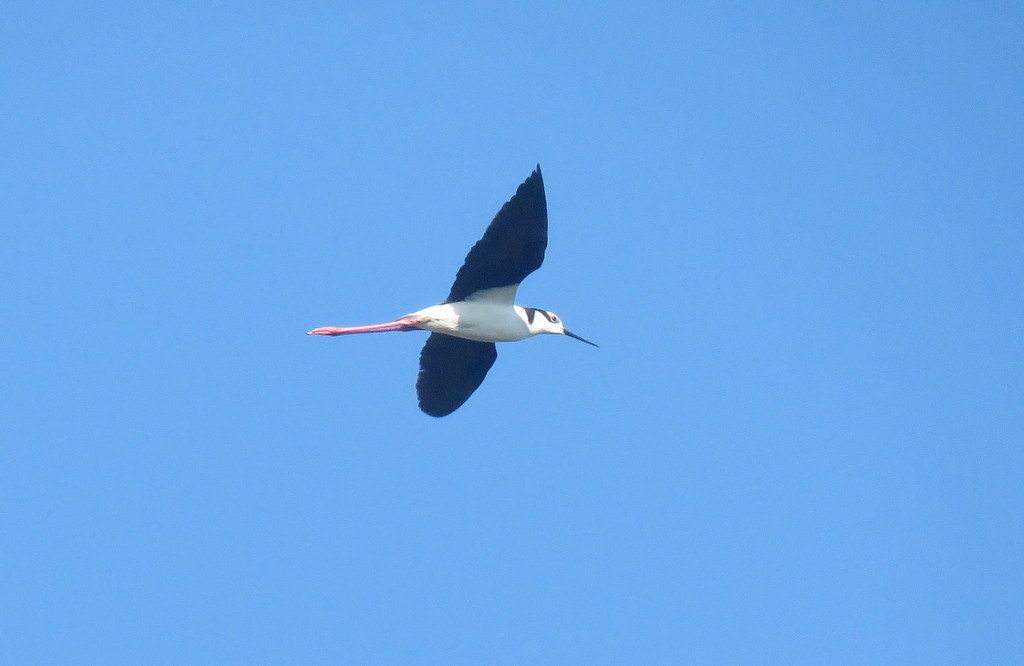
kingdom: Animalia
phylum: Chordata
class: Aves
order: Charadriiformes
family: Recurvirostridae
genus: Himantopus
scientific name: Himantopus mexicanus
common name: Black-necked stilt
